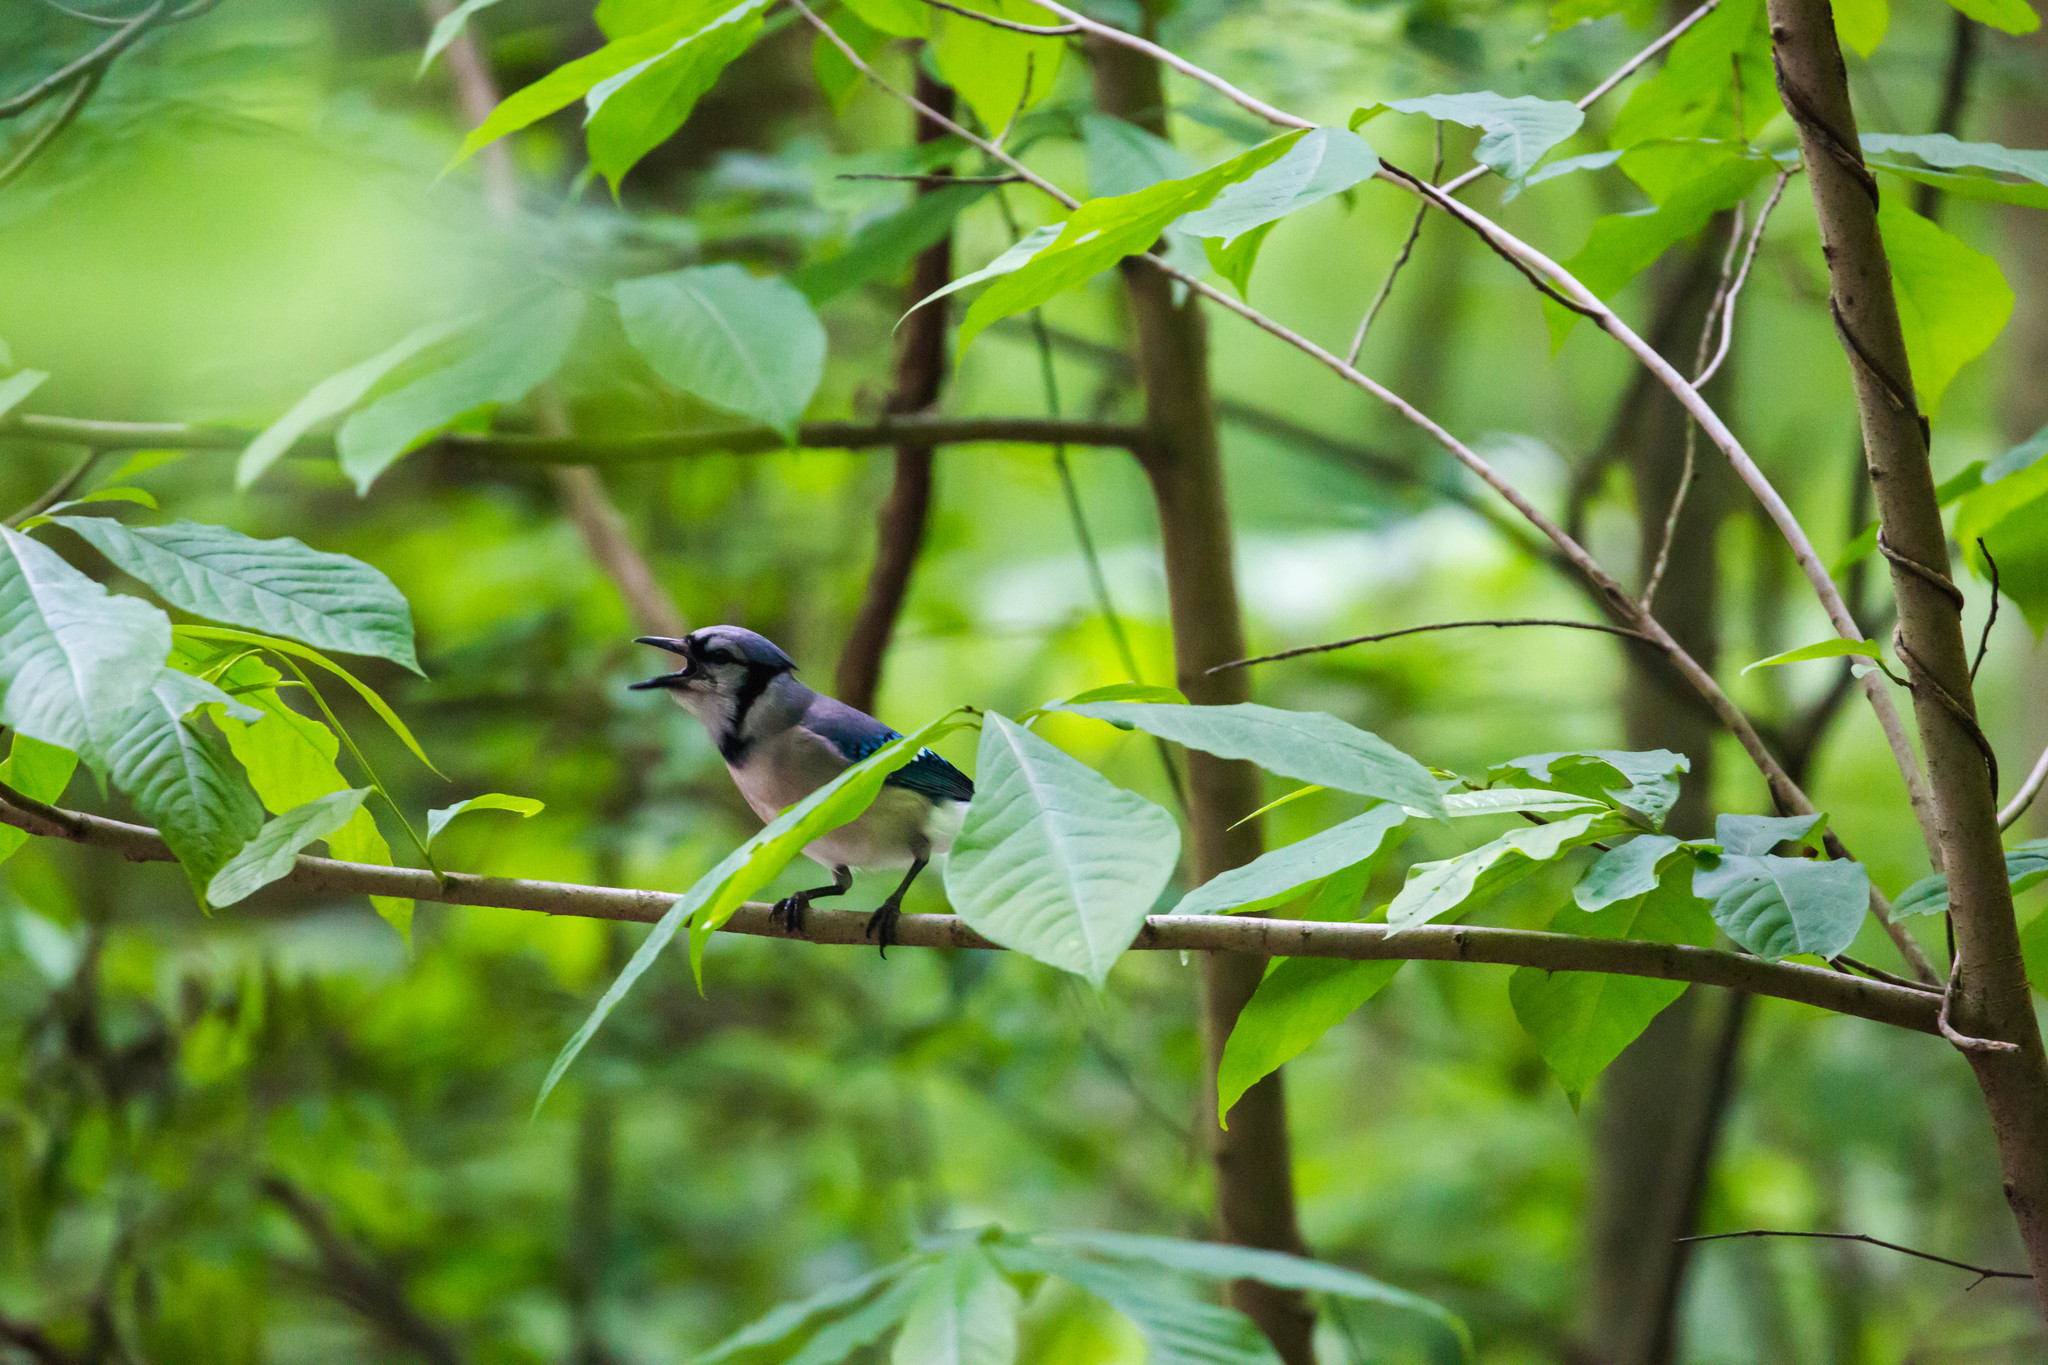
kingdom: Animalia
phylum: Chordata
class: Aves
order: Passeriformes
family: Corvidae
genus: Cyanocitta
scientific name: Cyanocitta cristata
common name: Blue jay
